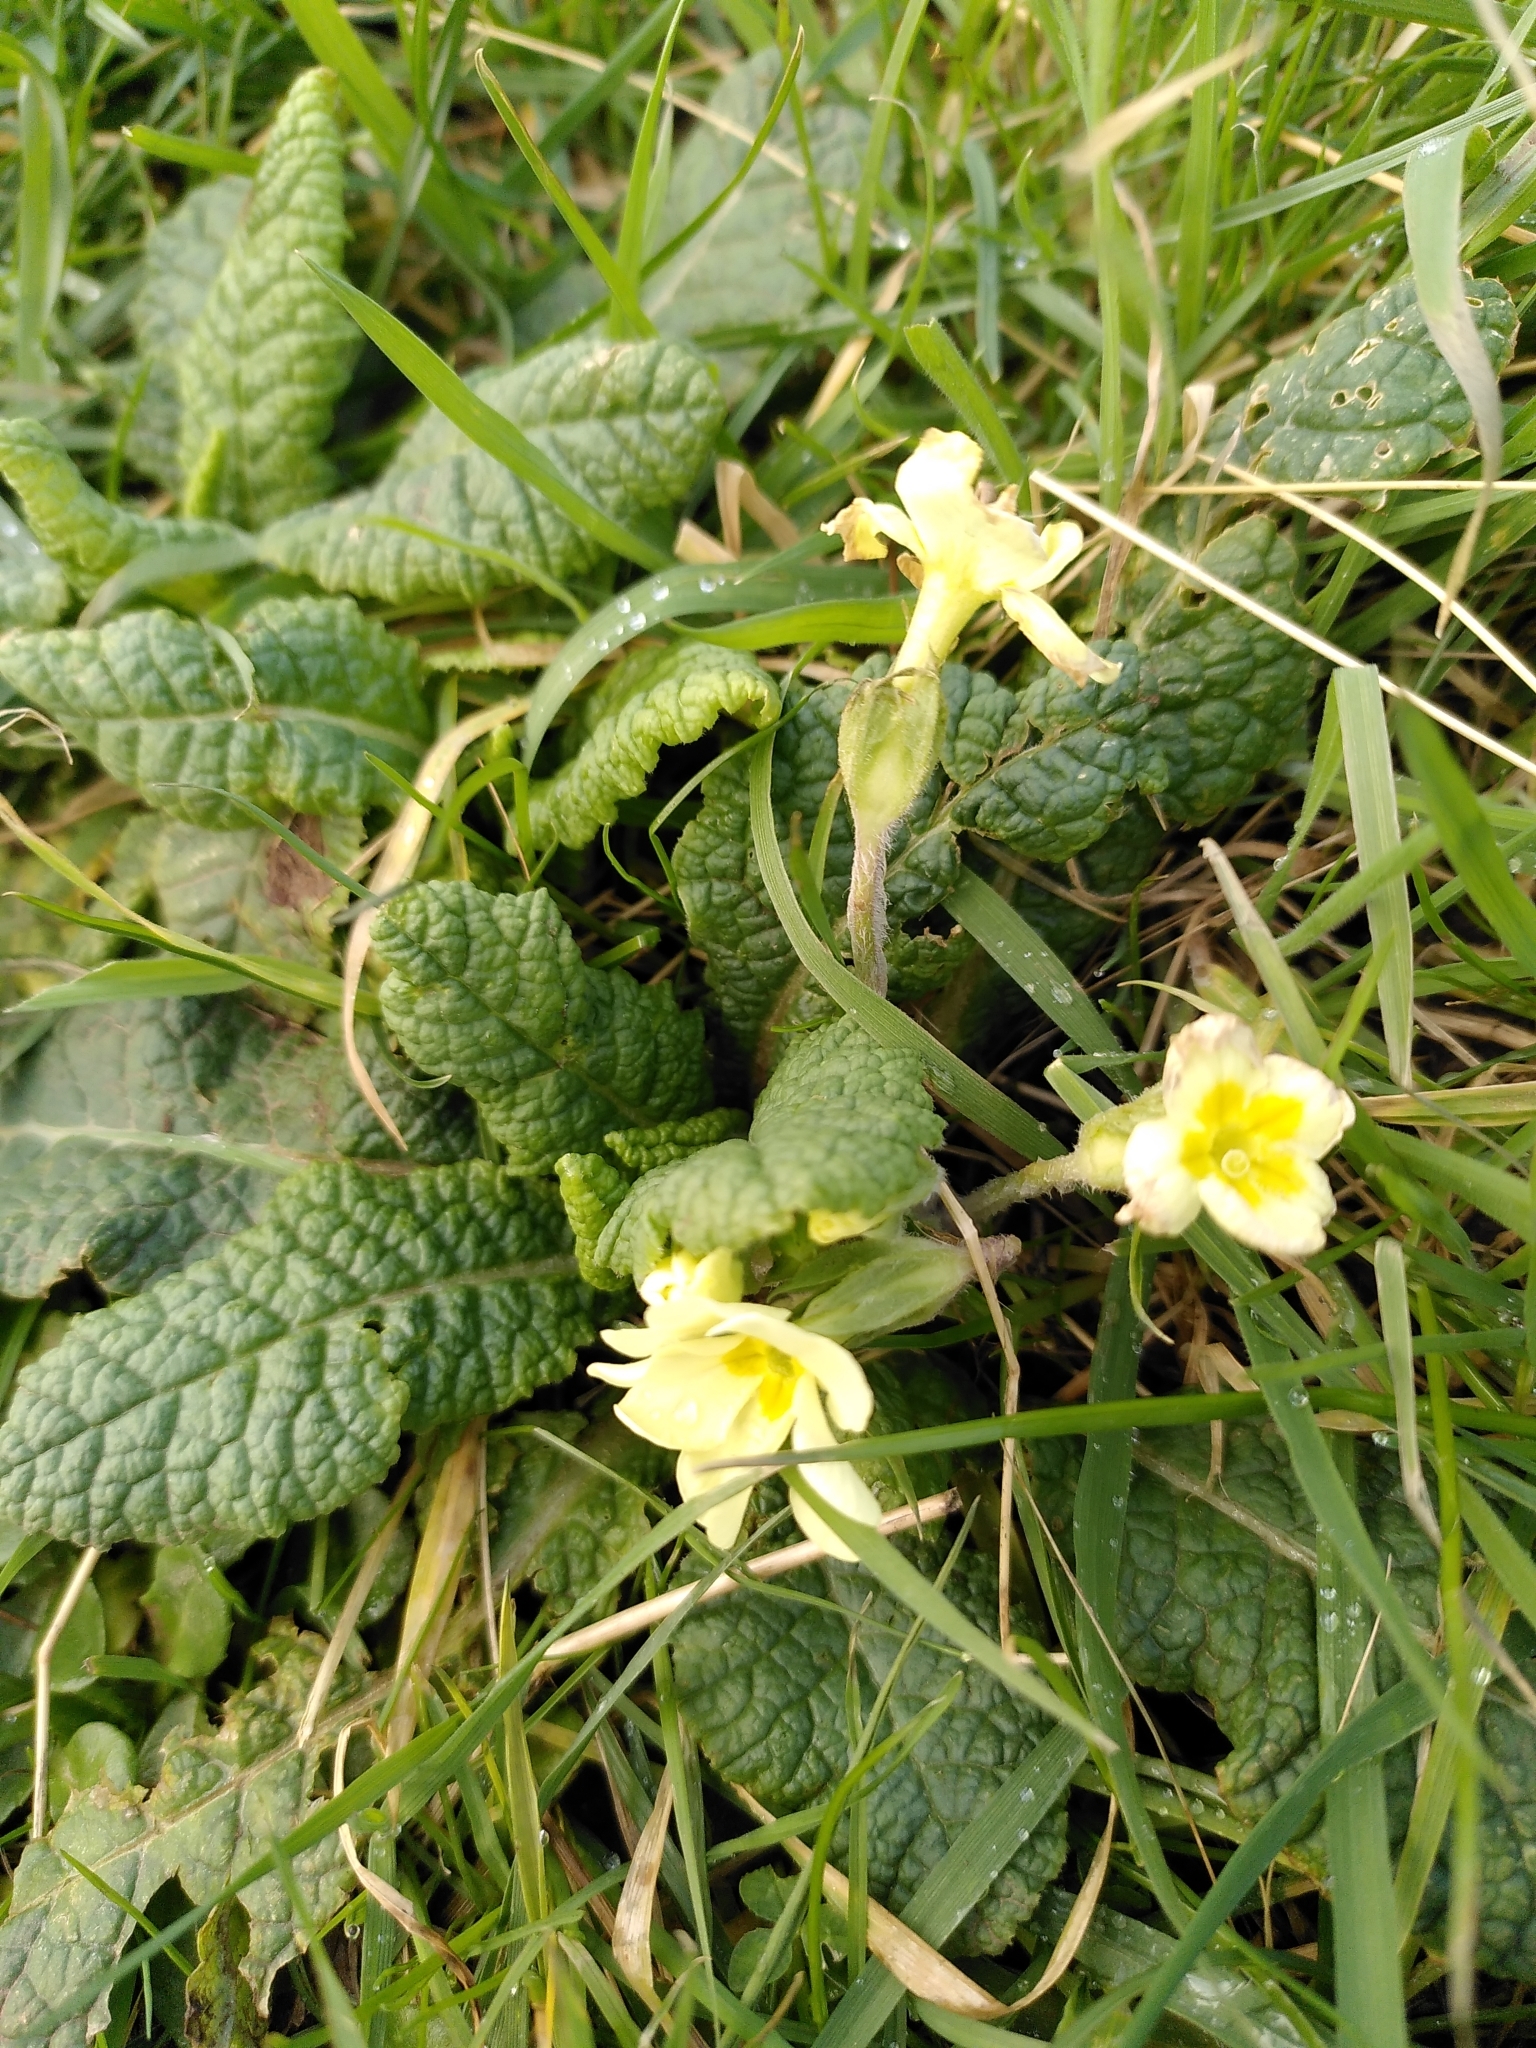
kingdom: Plantae
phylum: Tracheophyta
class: Magnoliopsida
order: Ericales
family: Primulaceae
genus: Primula
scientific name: Primula vulgaris
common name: Primrose
